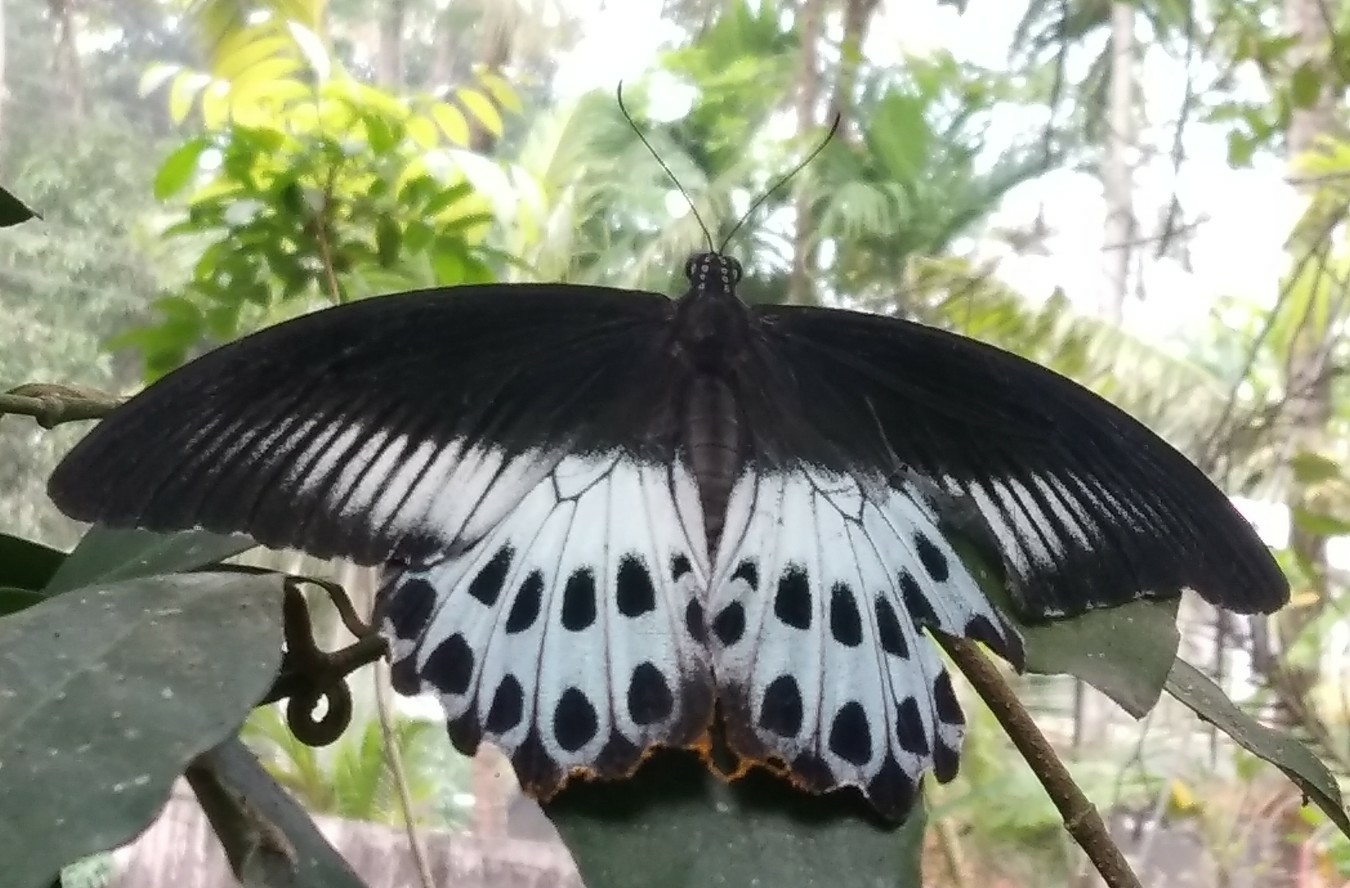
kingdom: Animalia
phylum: Arthropoda
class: Insecta
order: Lepidoptera
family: Papilionidae
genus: Papilio
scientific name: Papilio memnon
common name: Great mormon
